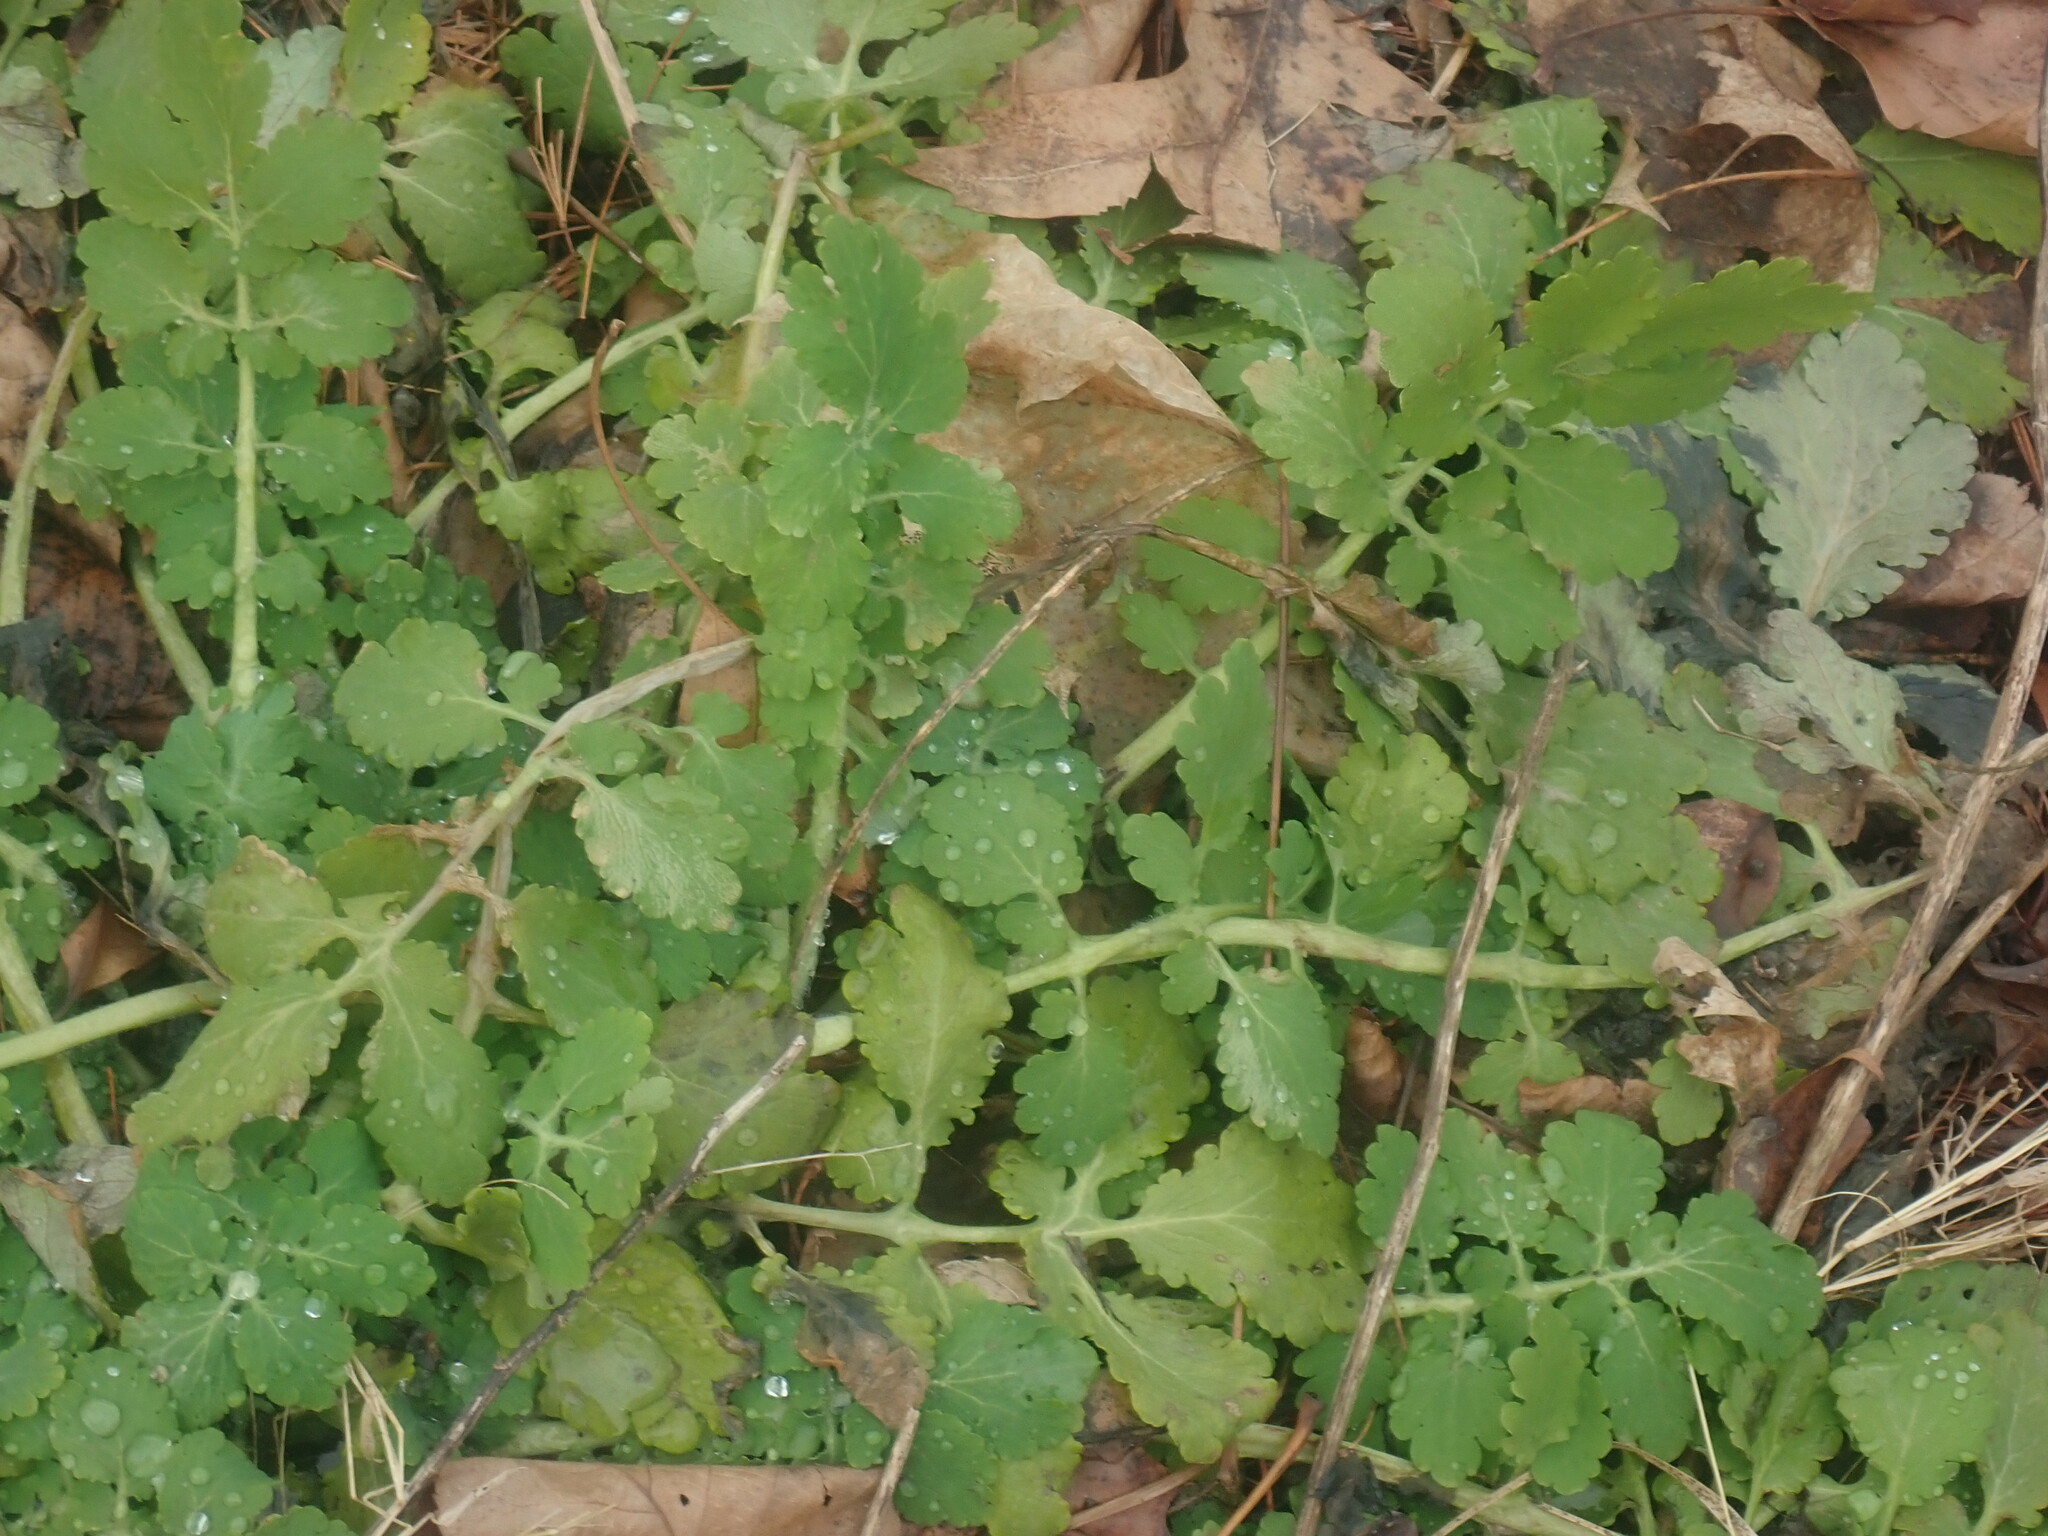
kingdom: Plantae
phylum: Tracheophyta
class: Magnoliopsida
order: Ranunculales
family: Papaveraceae
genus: Chelidonium
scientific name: Chelidonium majus
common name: Greater celandine
